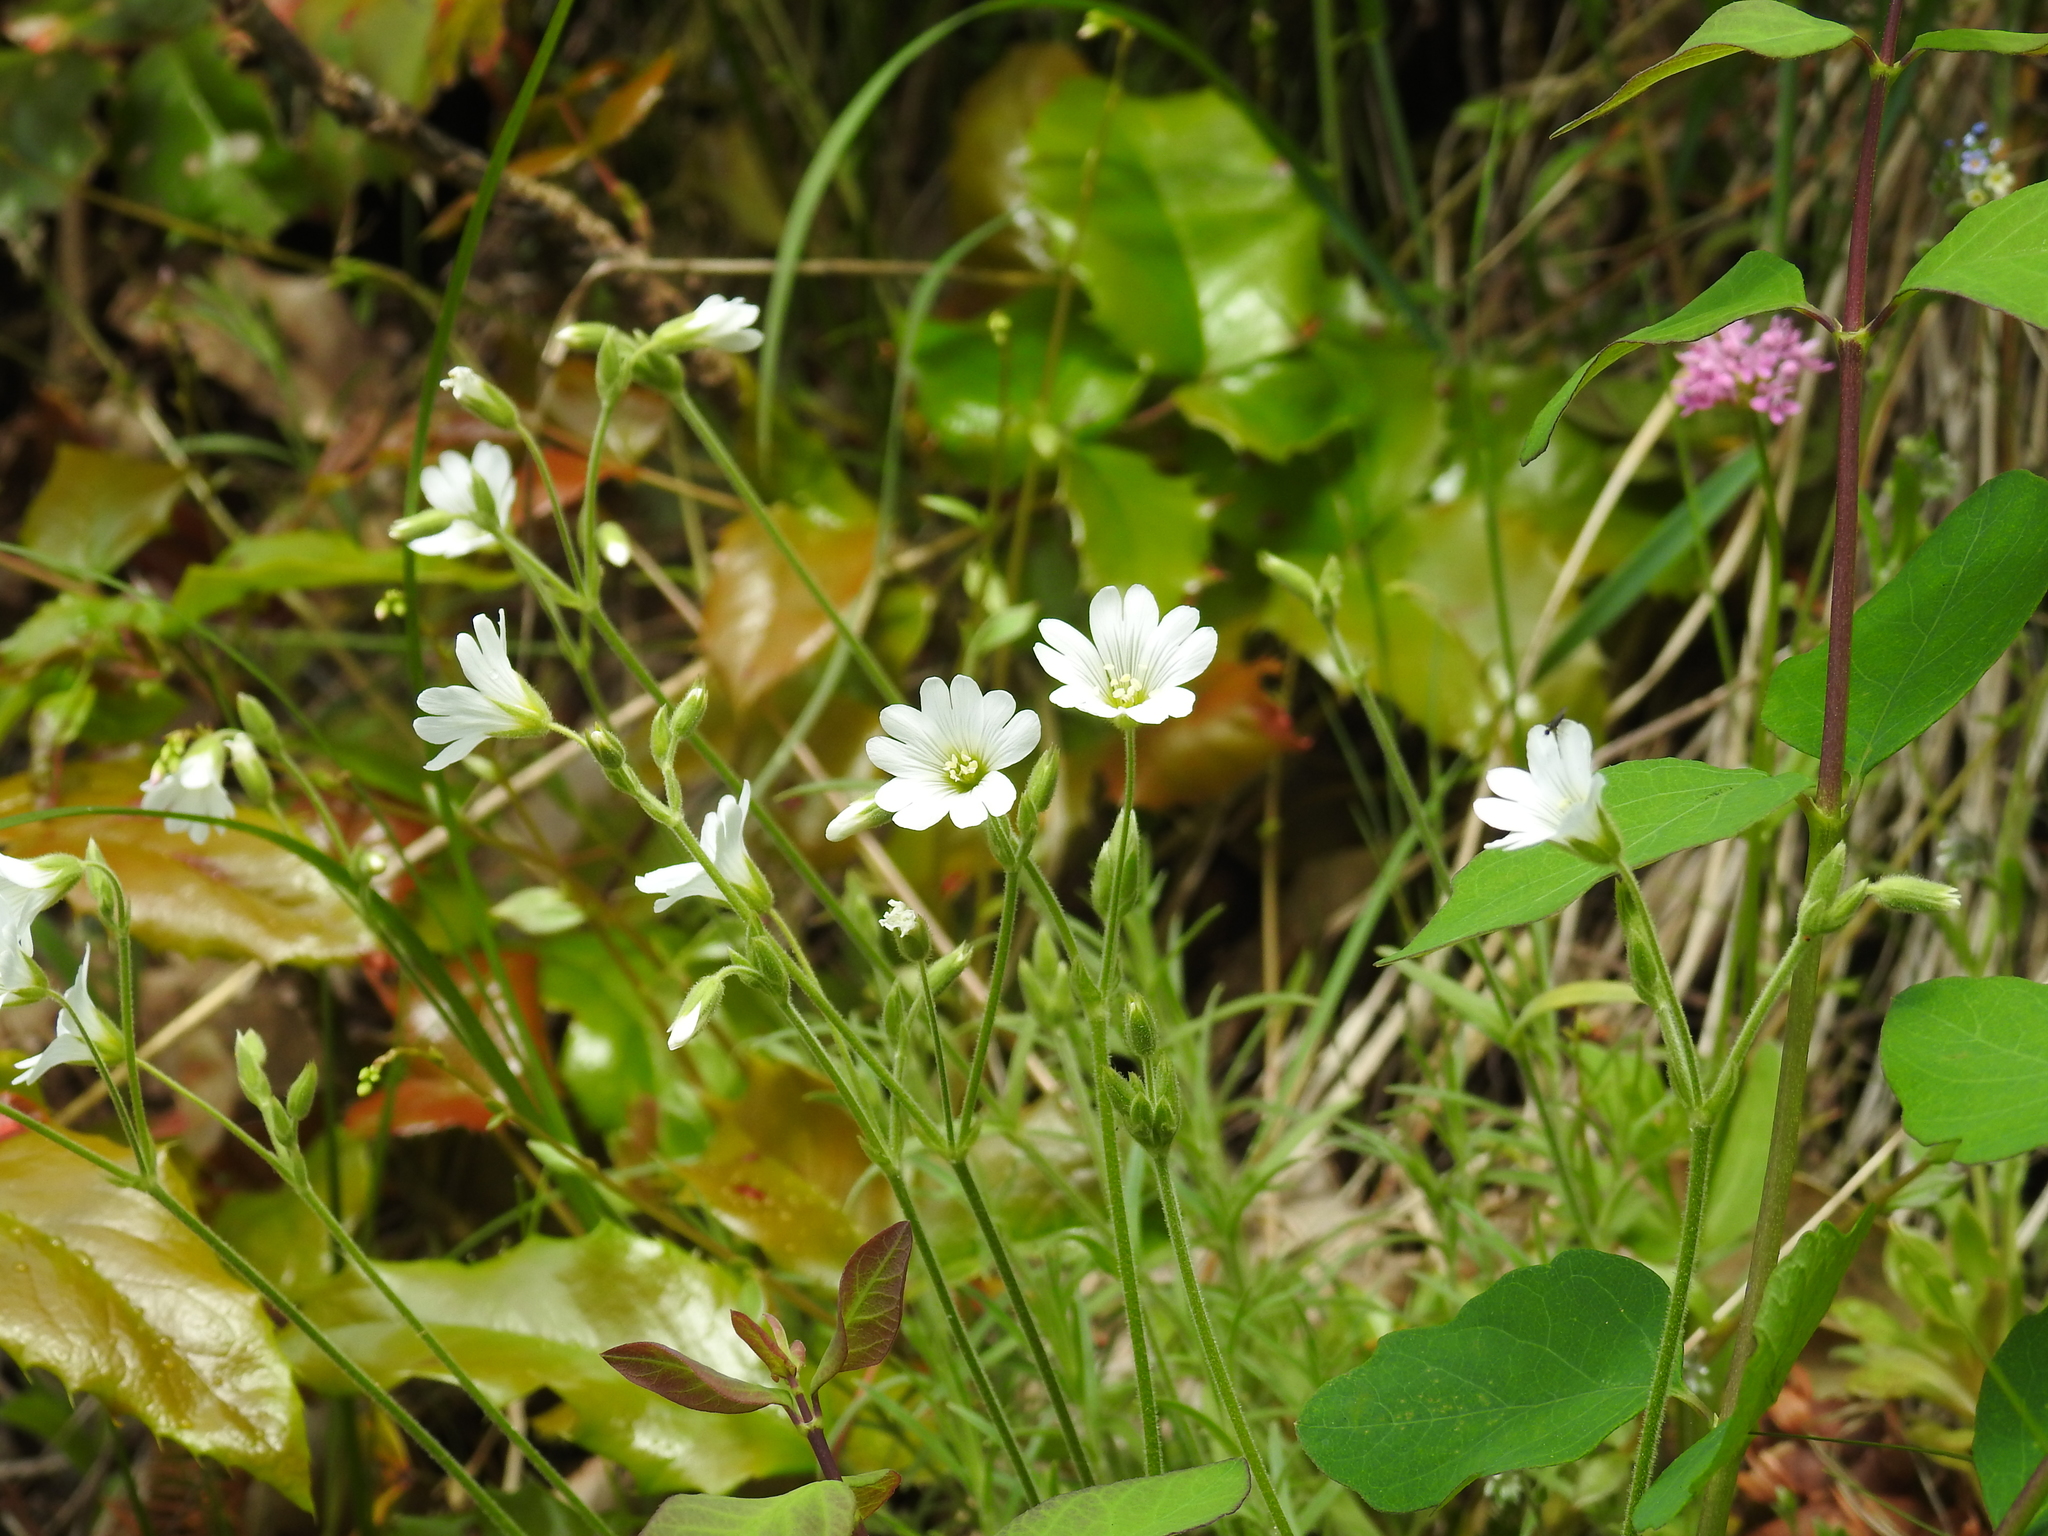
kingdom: Plantae
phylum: Tracheophyta
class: Magnoliopsida
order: Caryophyllales
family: Caryophyllaceae
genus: Cerastium
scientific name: Cerastium arvense
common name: Field mouse-ear
